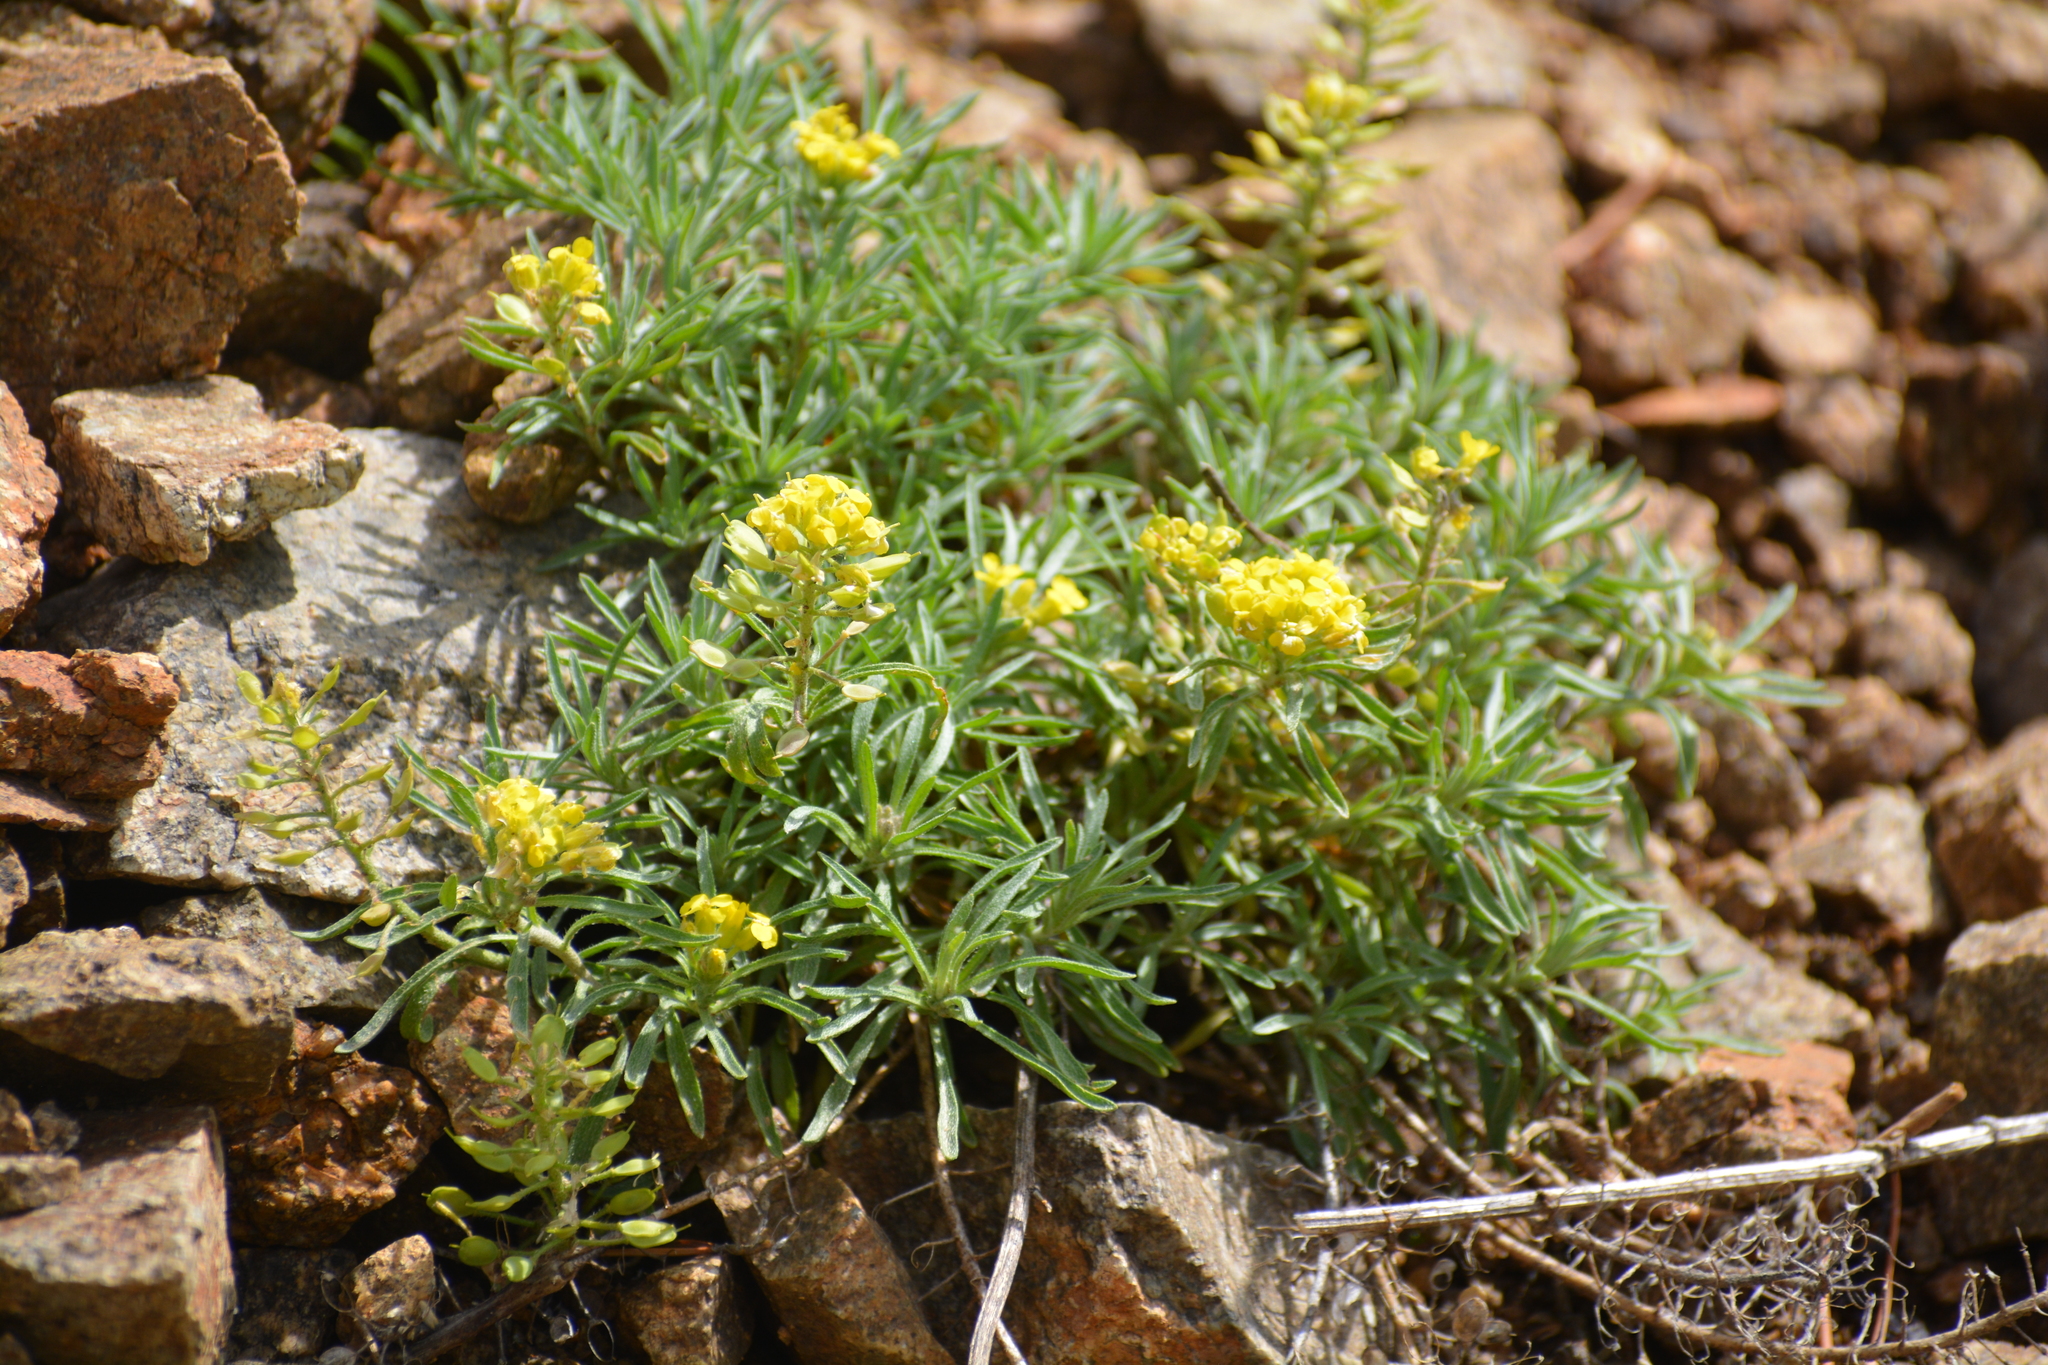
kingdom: Plantae
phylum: Tracheophyta
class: Magnoliopsida
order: Brassicales
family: Brassicaceae
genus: Alyssum
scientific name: Alyssum lenense
